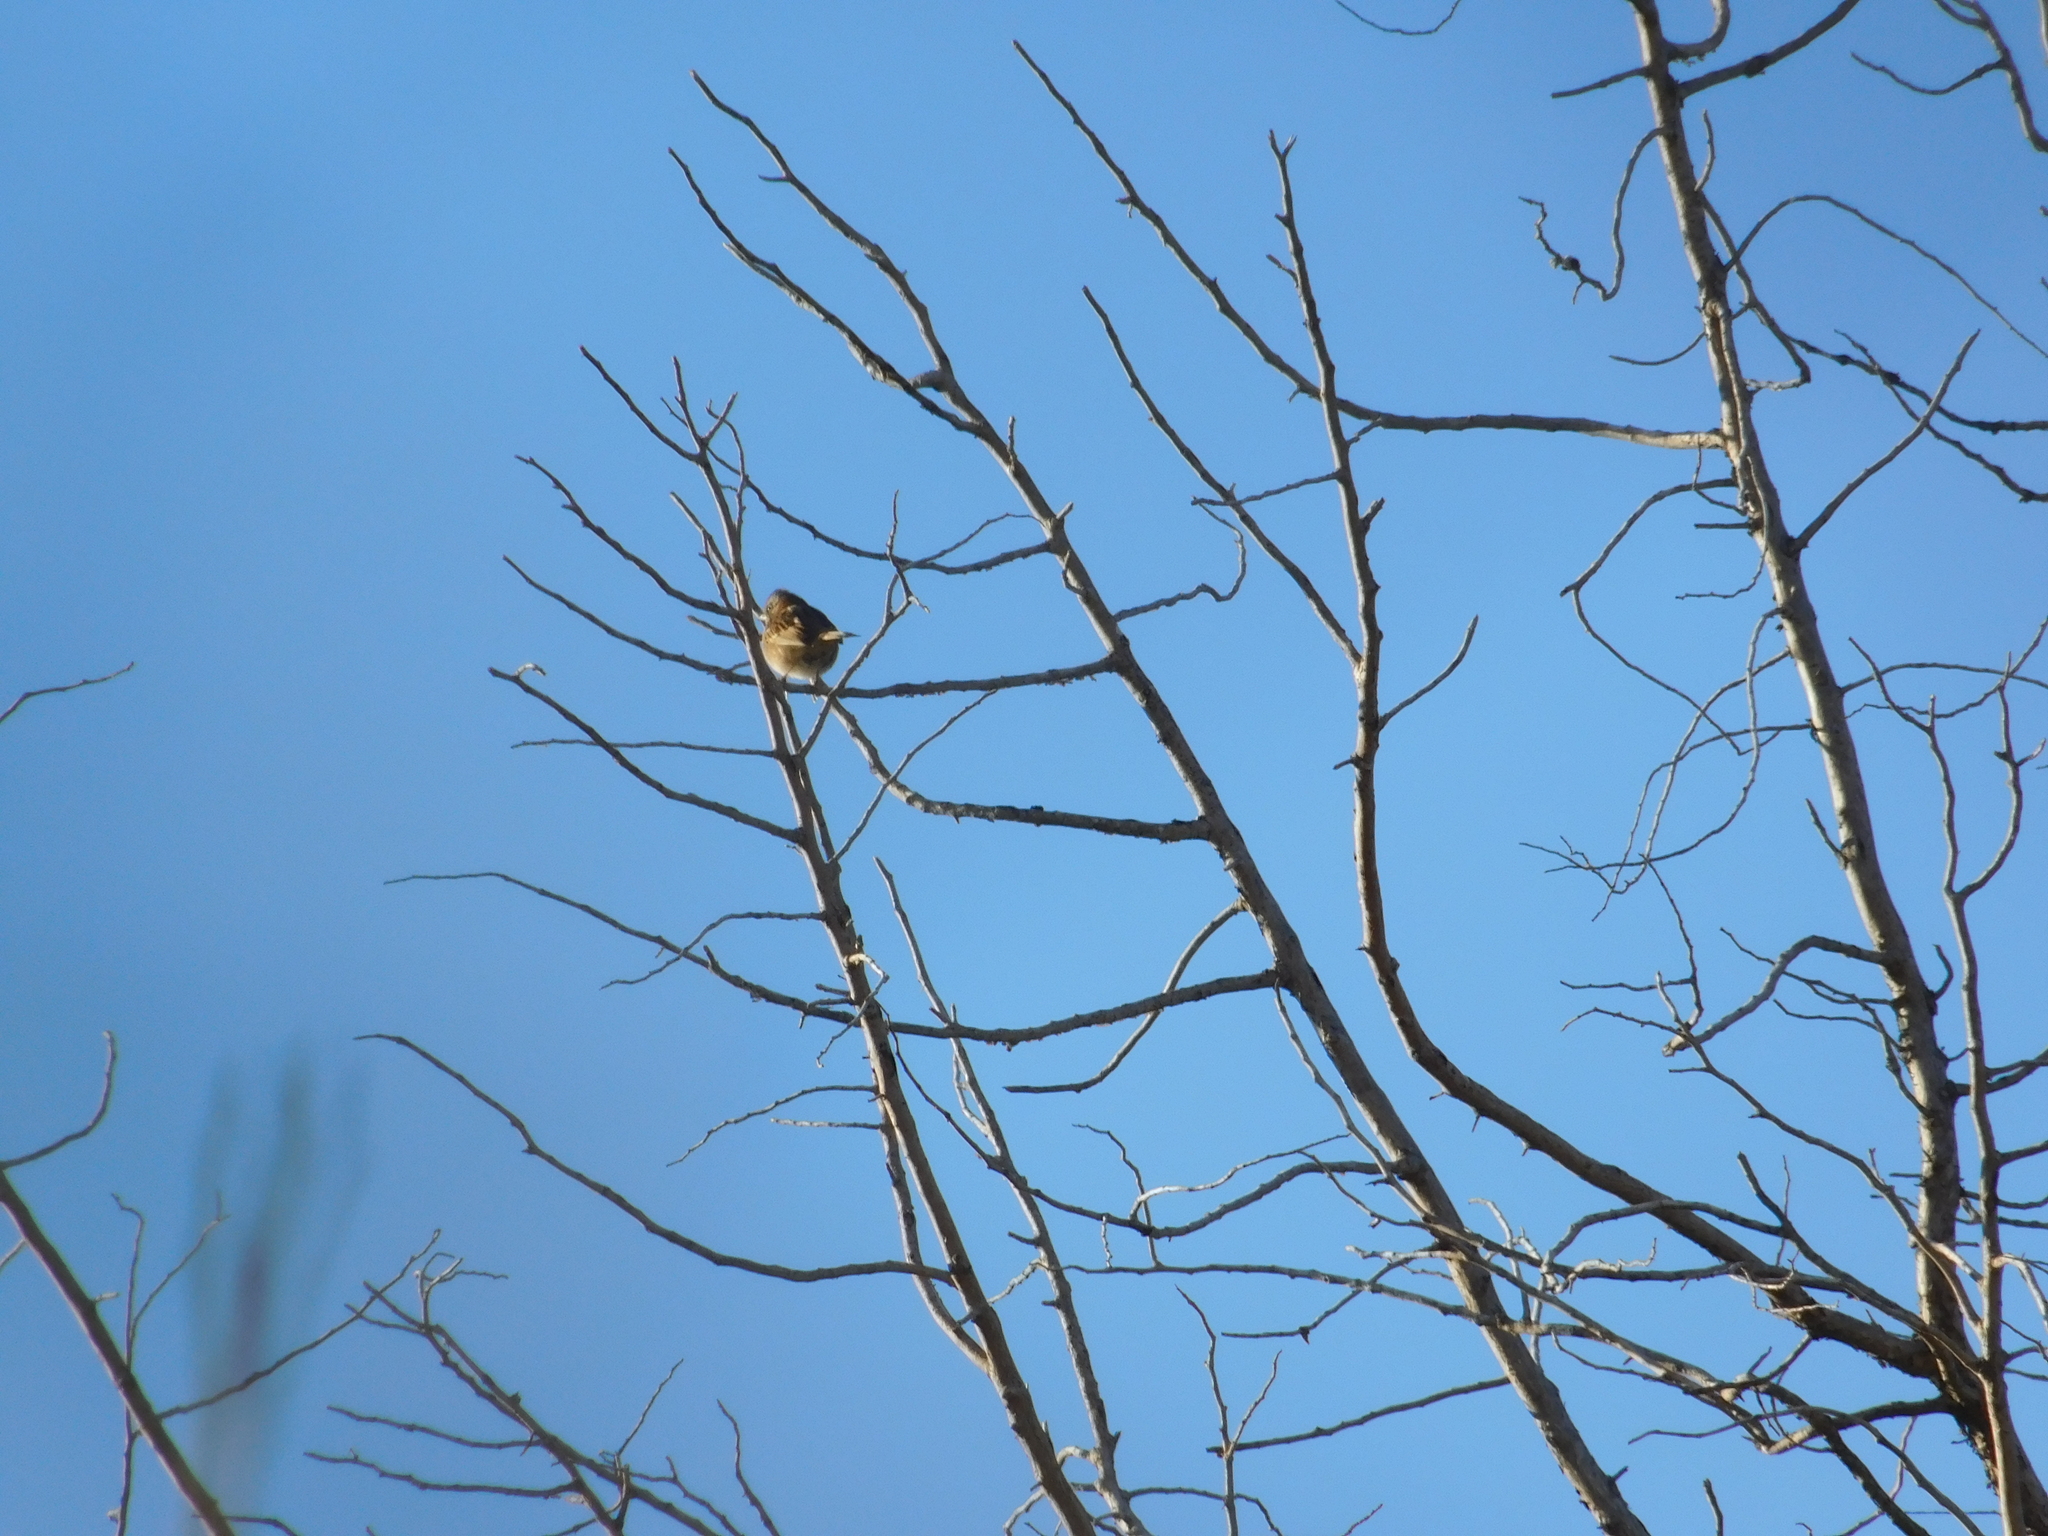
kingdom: Animalia
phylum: Chordata
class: Aves
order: Passeriformes
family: Passerellidae
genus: Zonotrichia
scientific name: Zonotrichia capensis
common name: Rufous-collared sparrow
